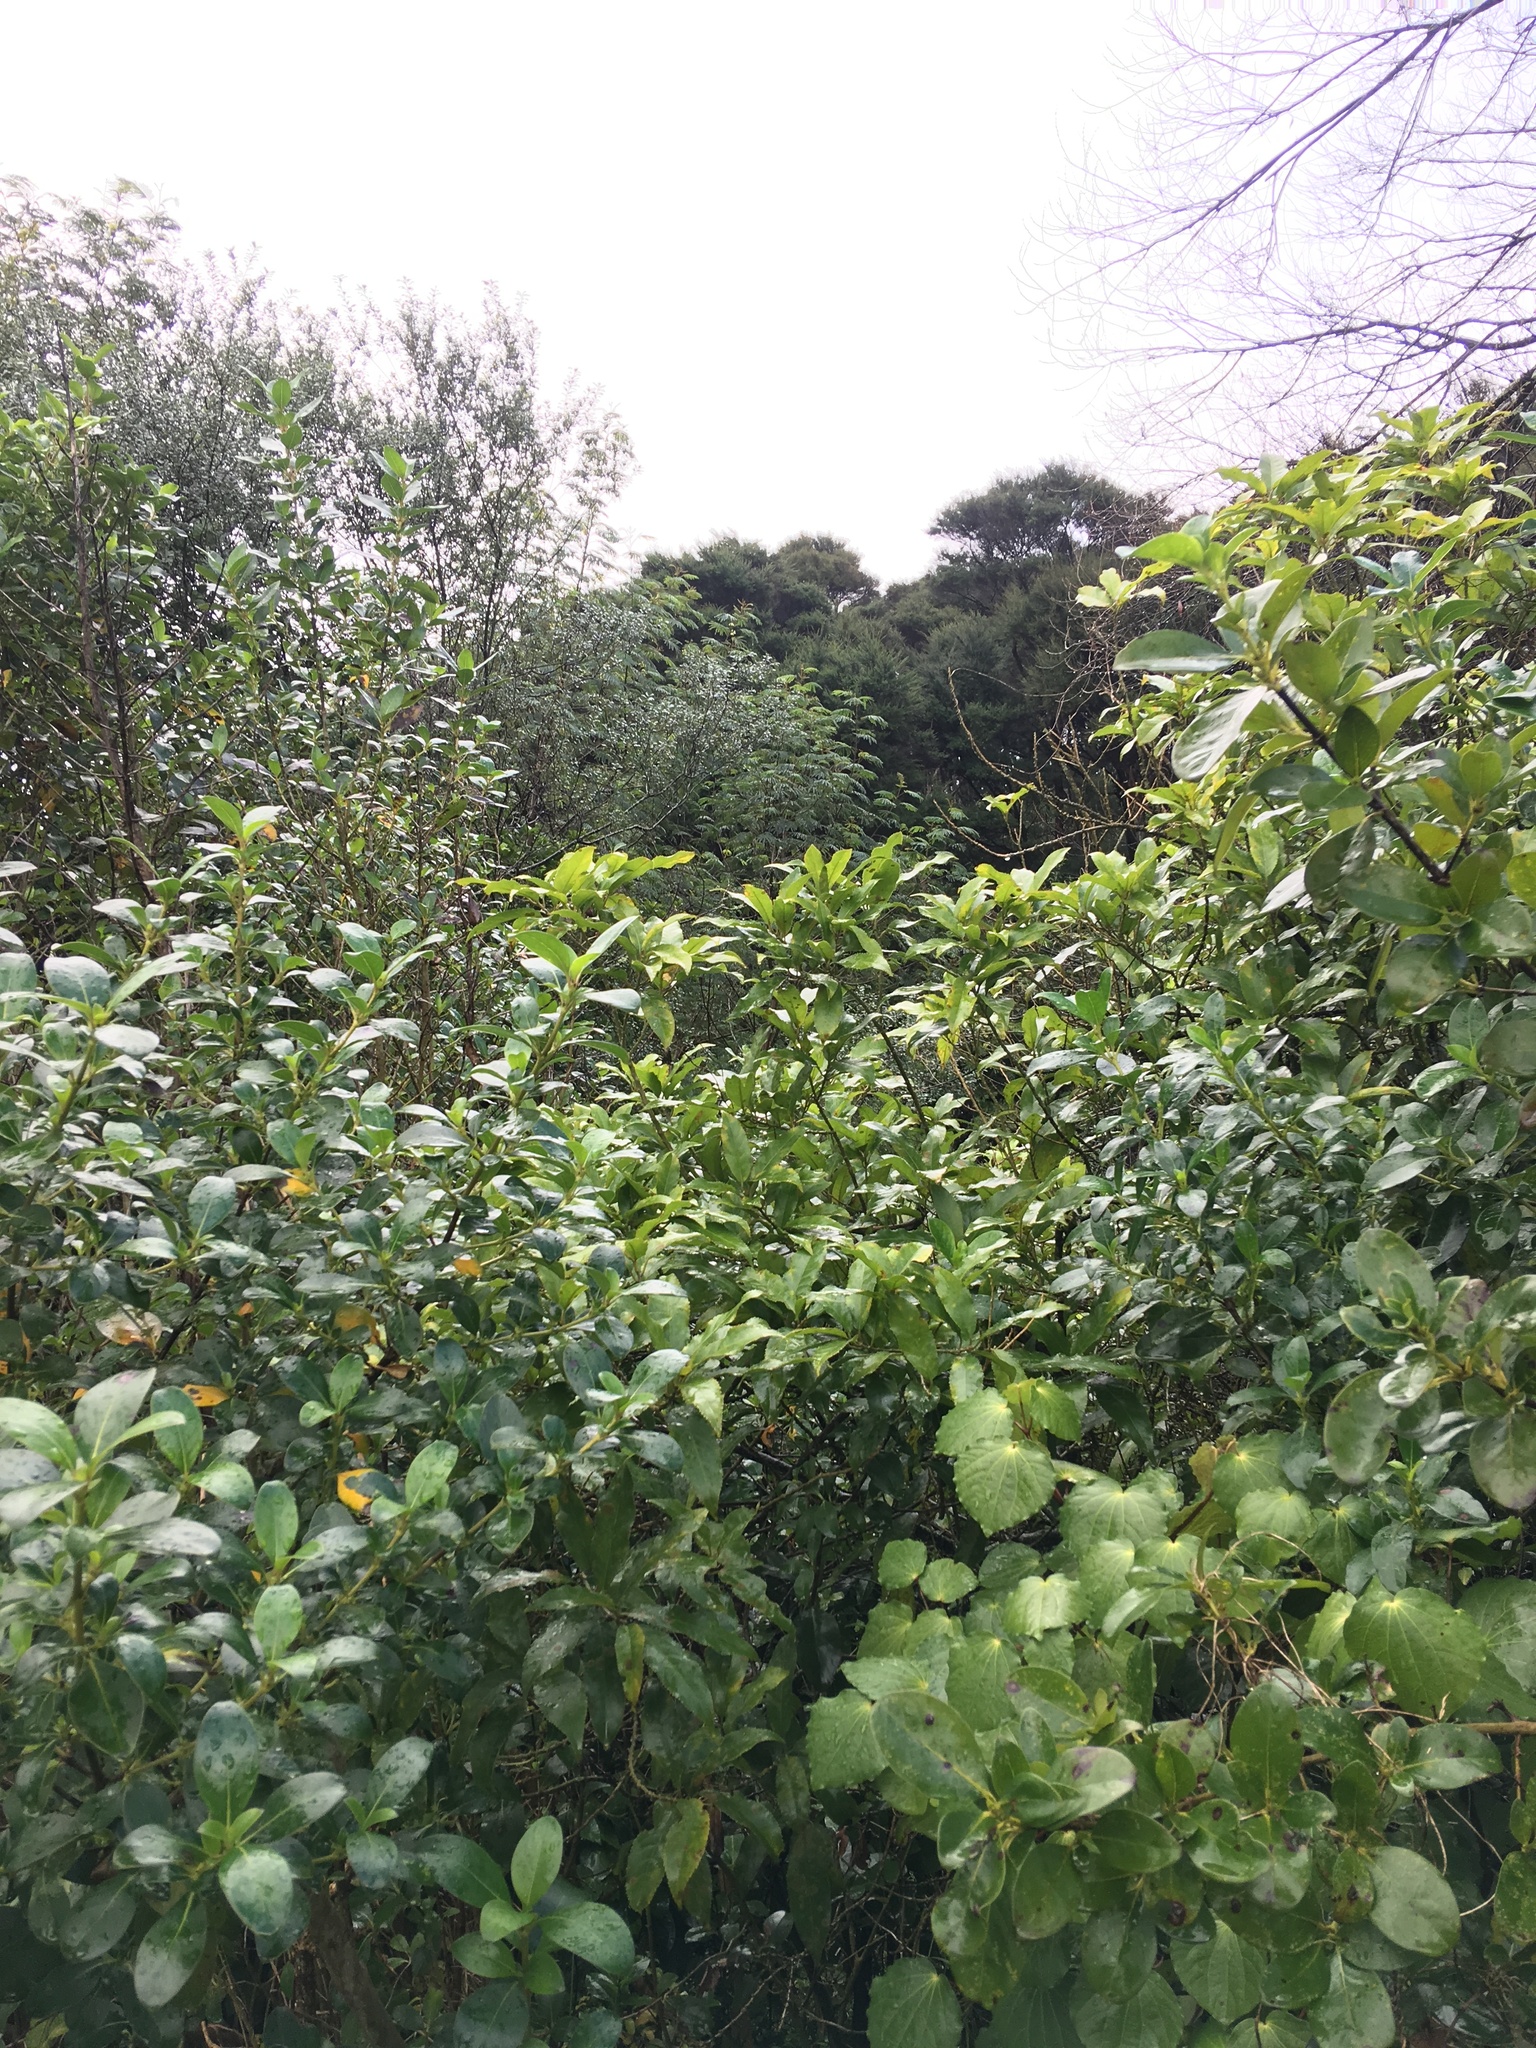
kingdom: Plantae
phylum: Tracheophyta
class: Magnoliopsida
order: Fabales
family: Fabaceae
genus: Paraserianthes
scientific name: Paraserianthes lophantha
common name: Plume albizia
